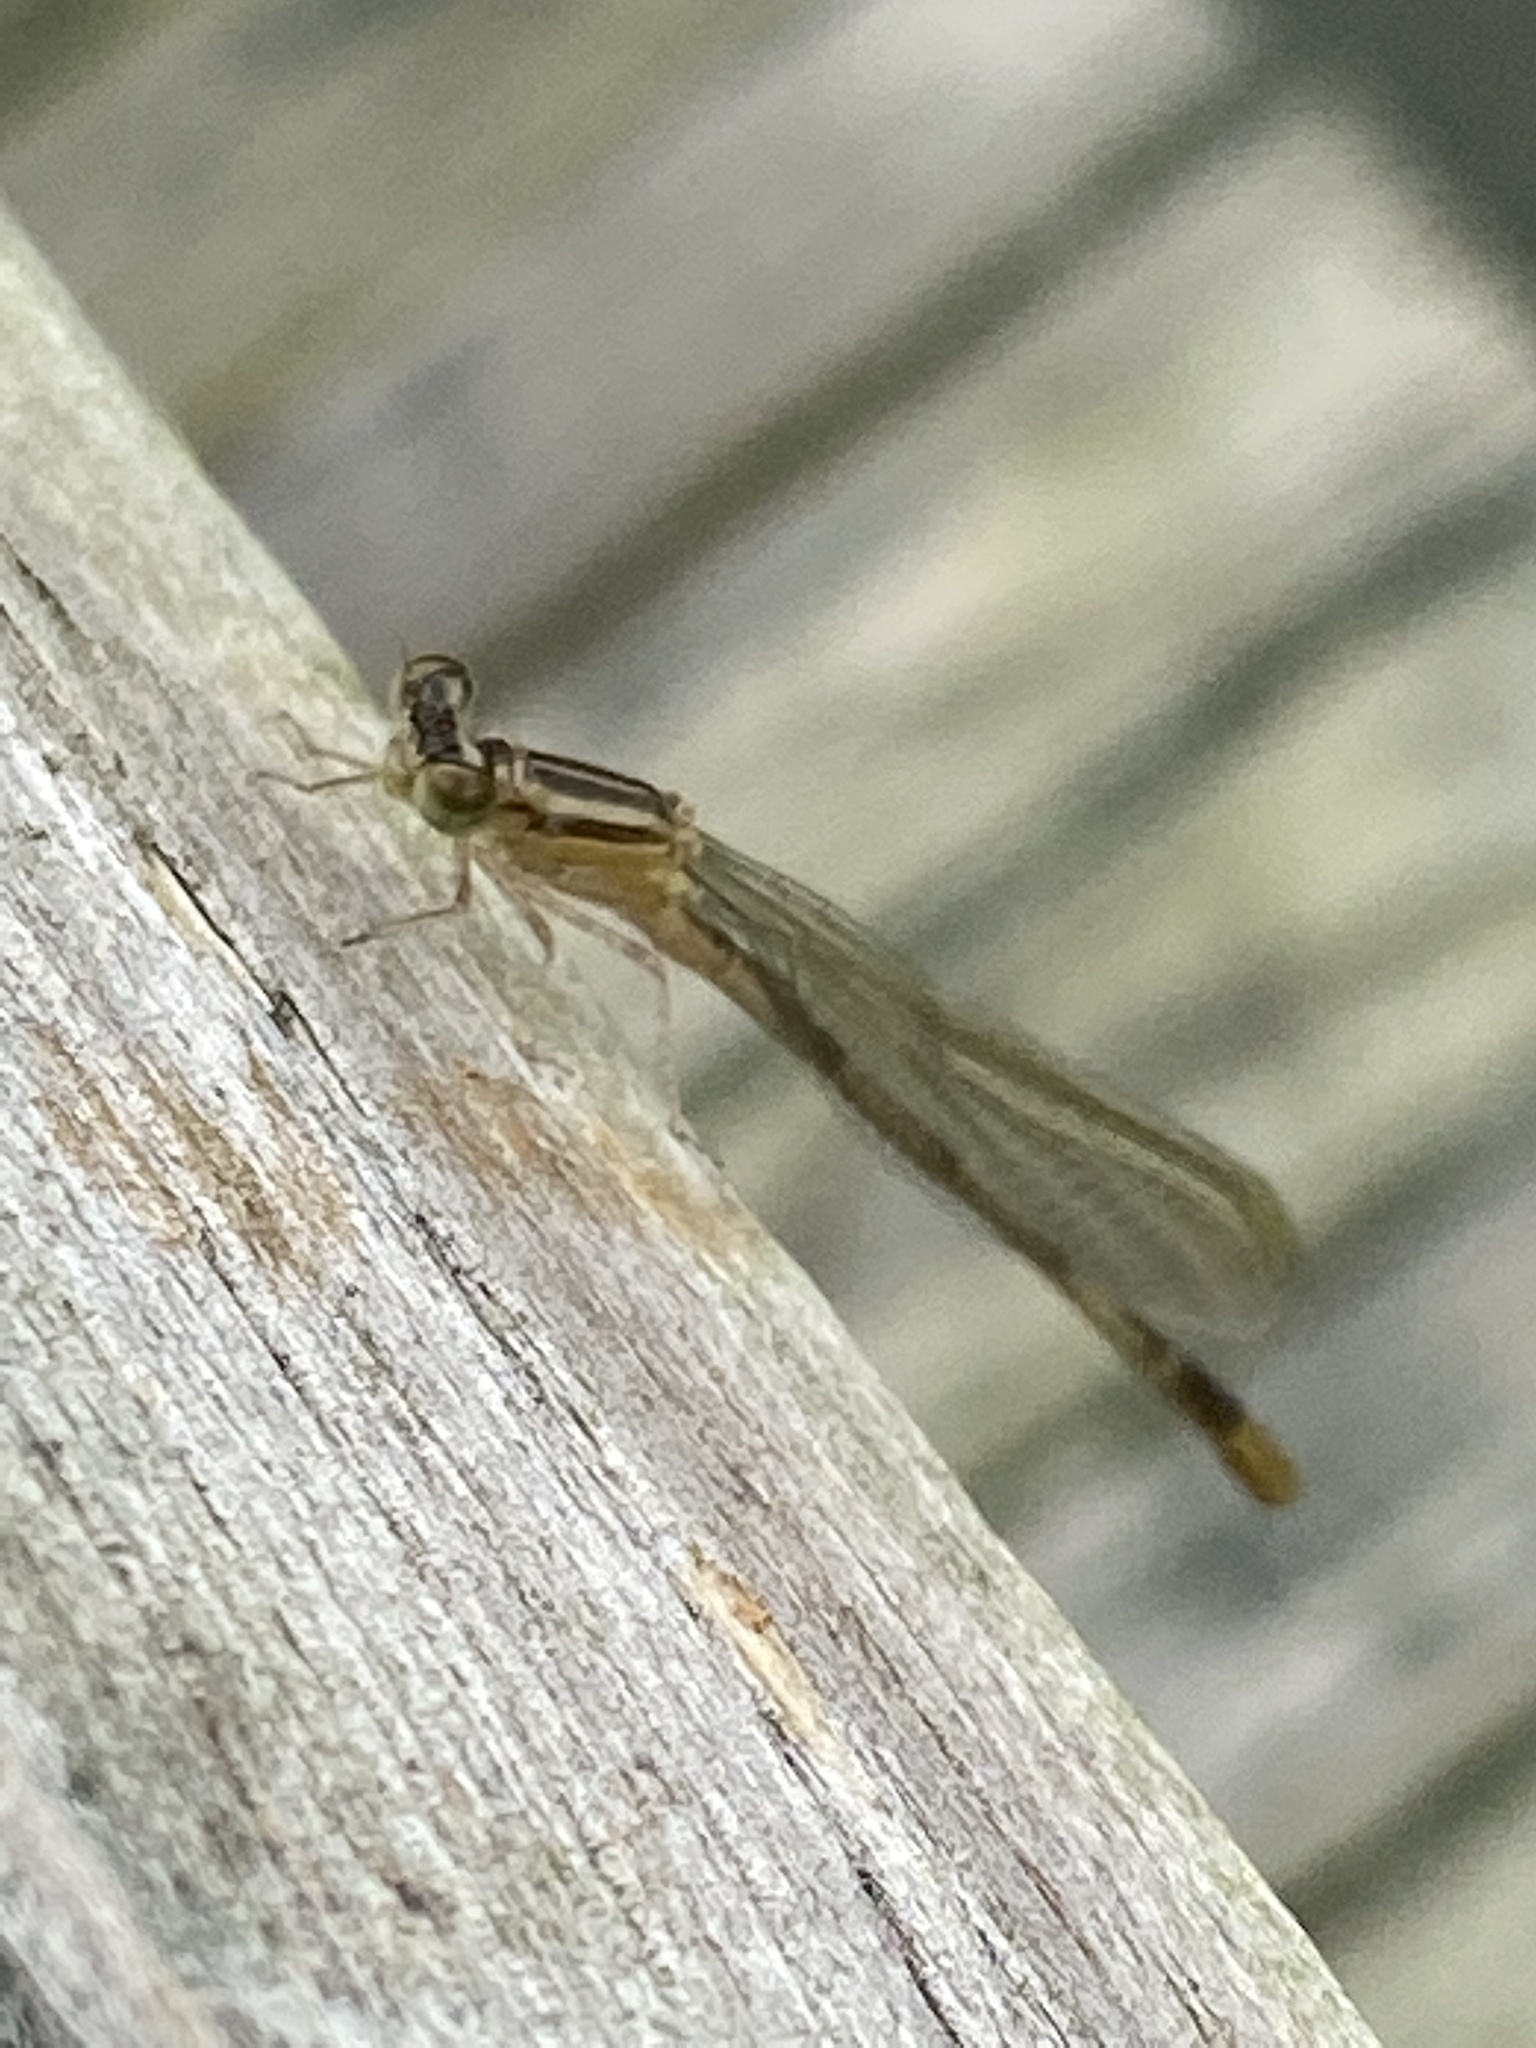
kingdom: Animalia
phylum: Arthropoda
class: Insecta
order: Odonata
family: Coenagrionidae
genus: Enallagma
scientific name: Enallagma durum
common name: Big bluet
